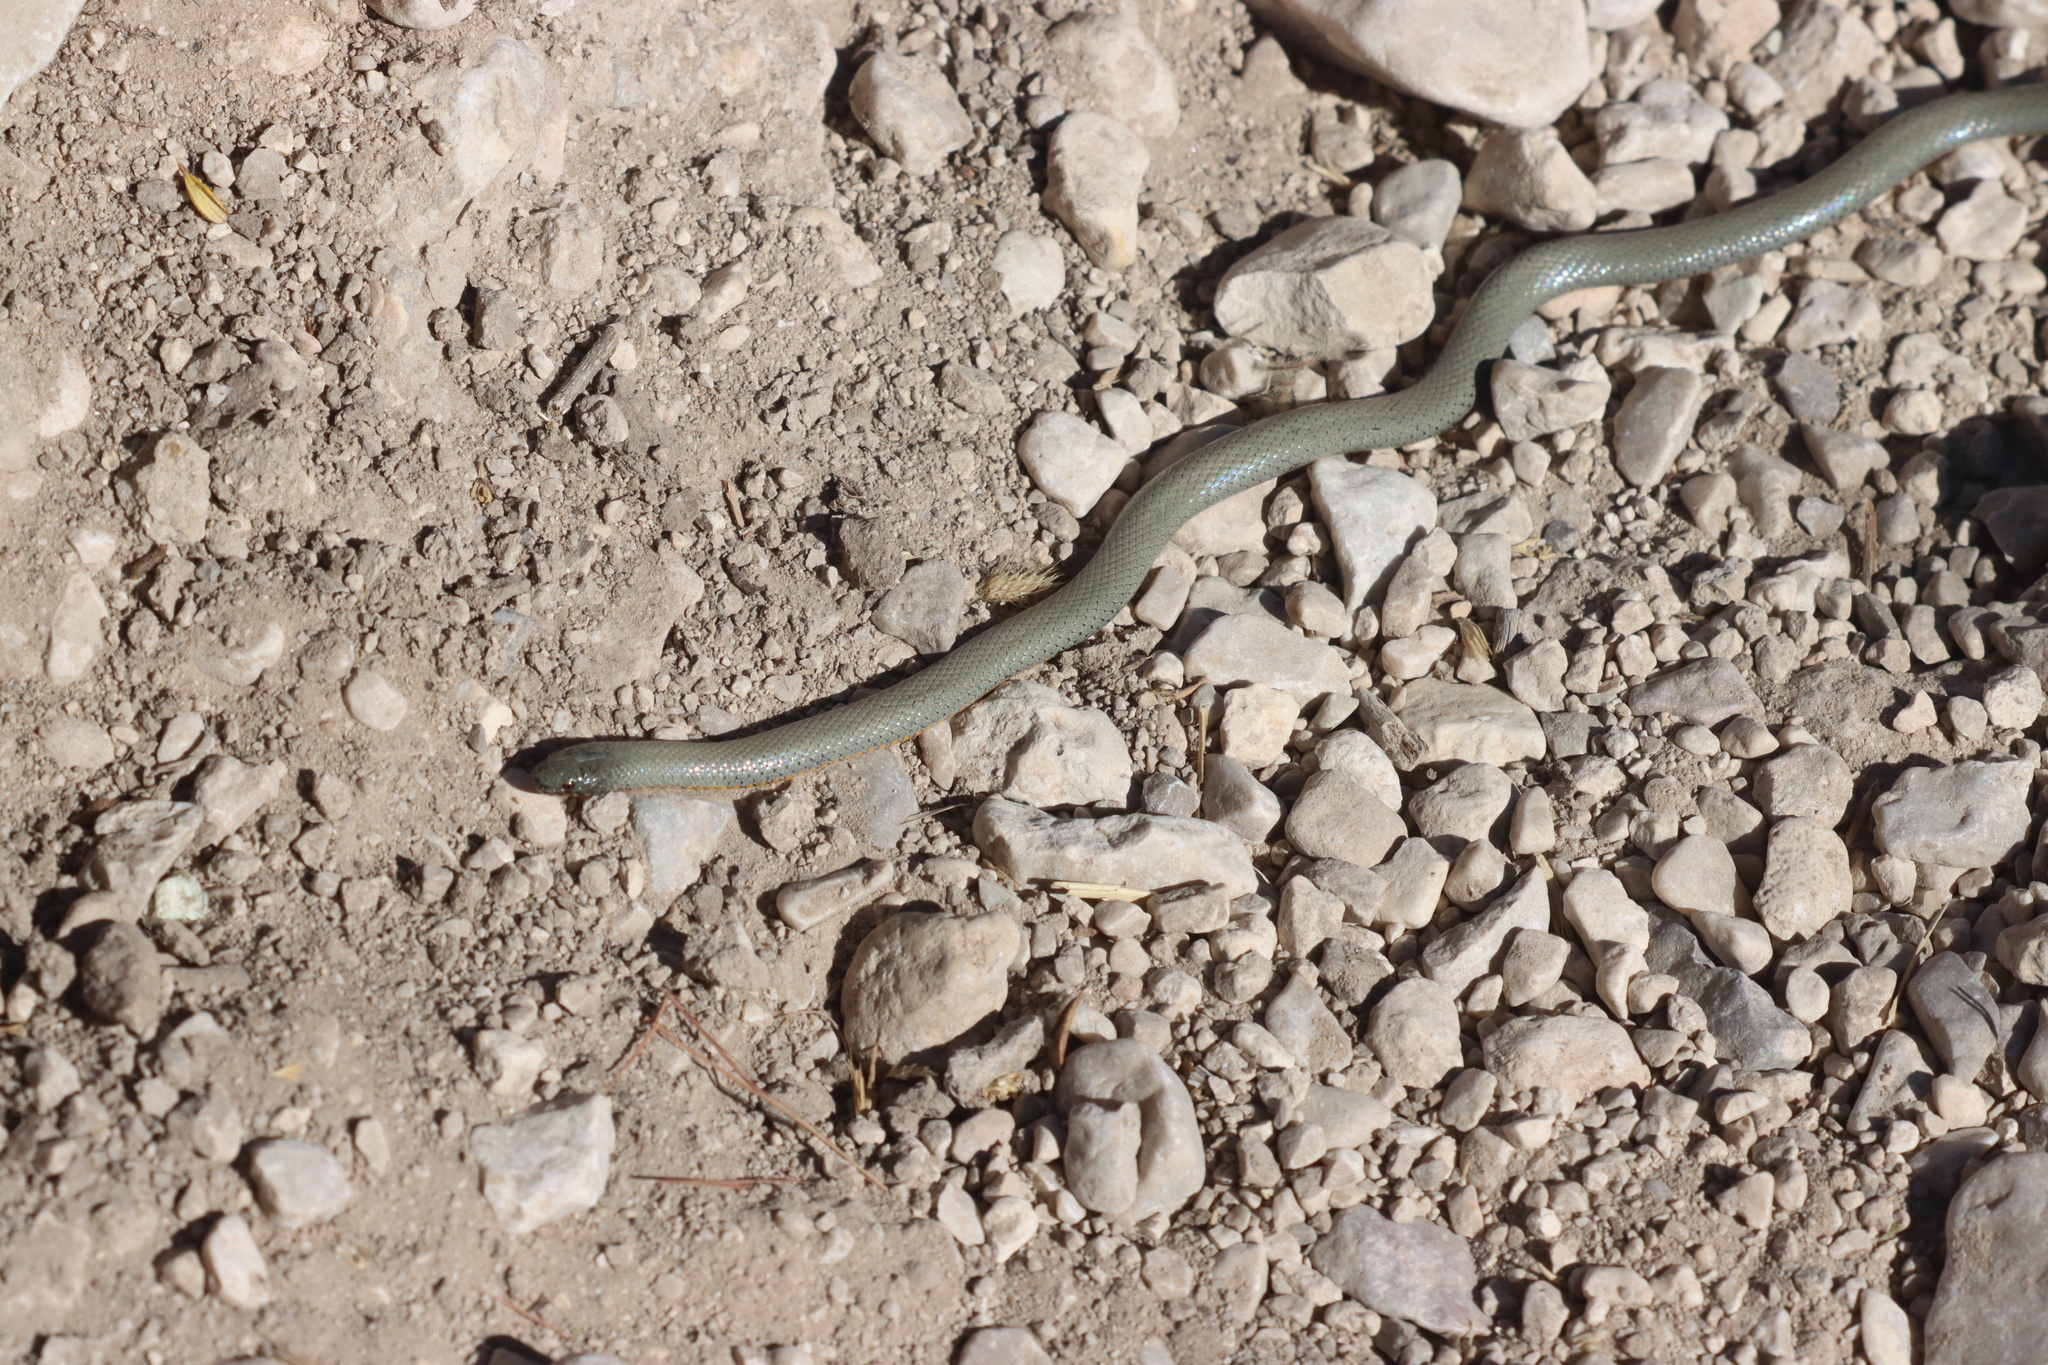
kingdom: Animalia
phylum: Chordata
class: Squamata
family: Colubridae
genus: Diadophis
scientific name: Diadophis punctatus
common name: Ringneck snake
